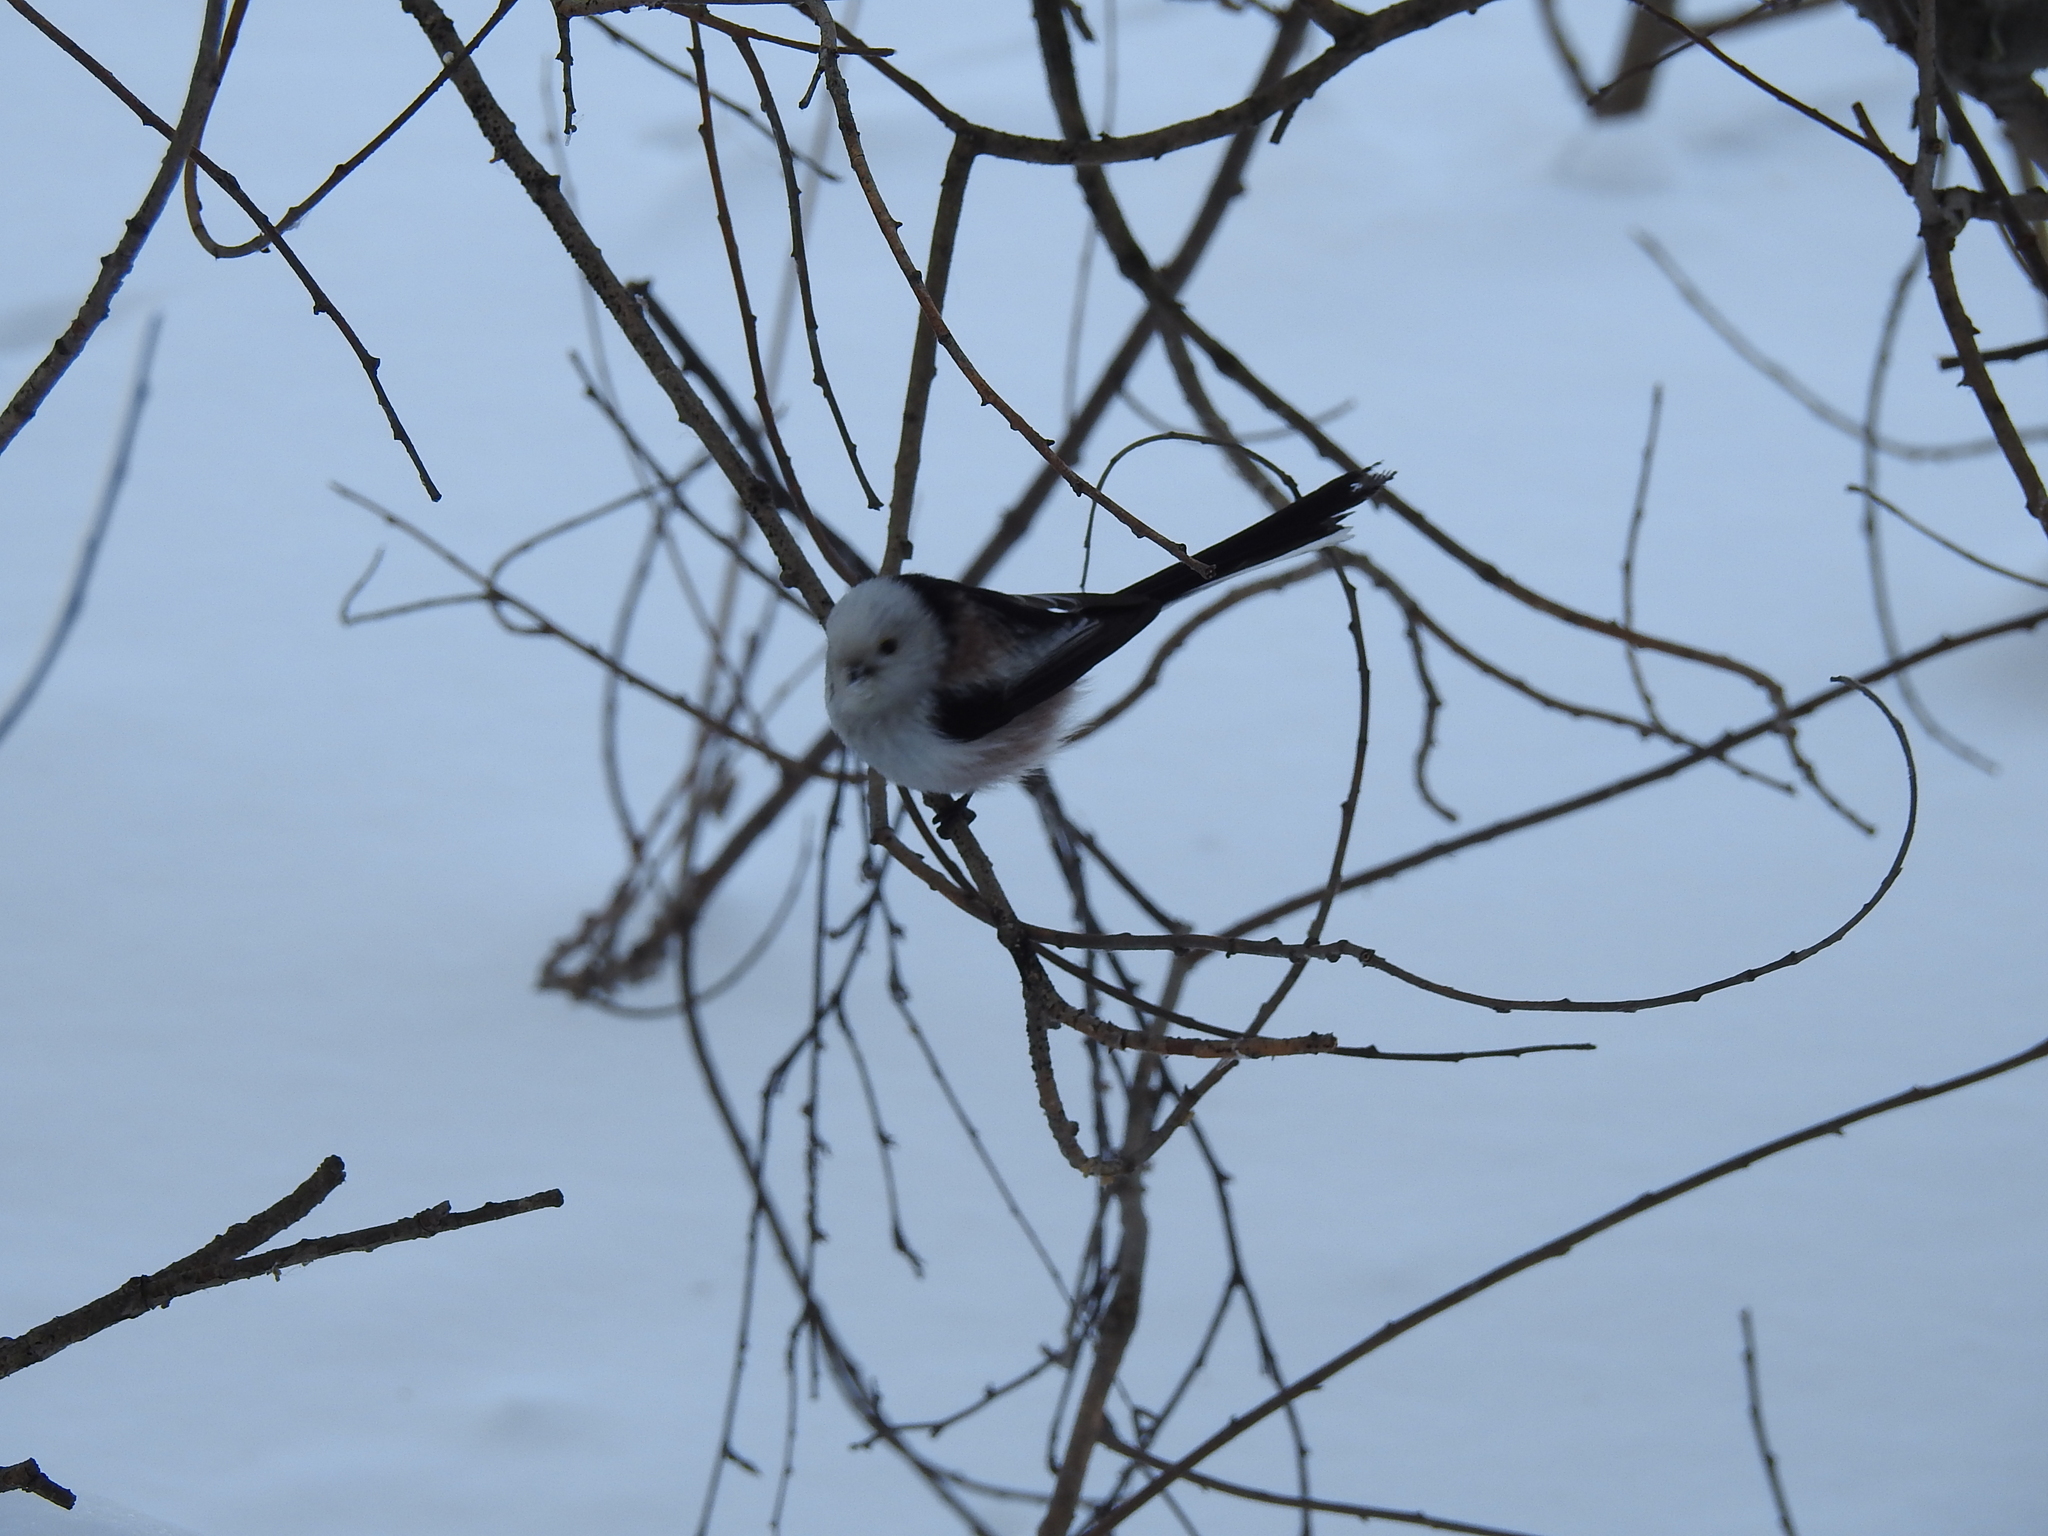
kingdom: Animalia
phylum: Chordata
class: Aves
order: Passeriformes
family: Aegithalidae
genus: Aegithalos
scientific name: Aegithalos caudatus
